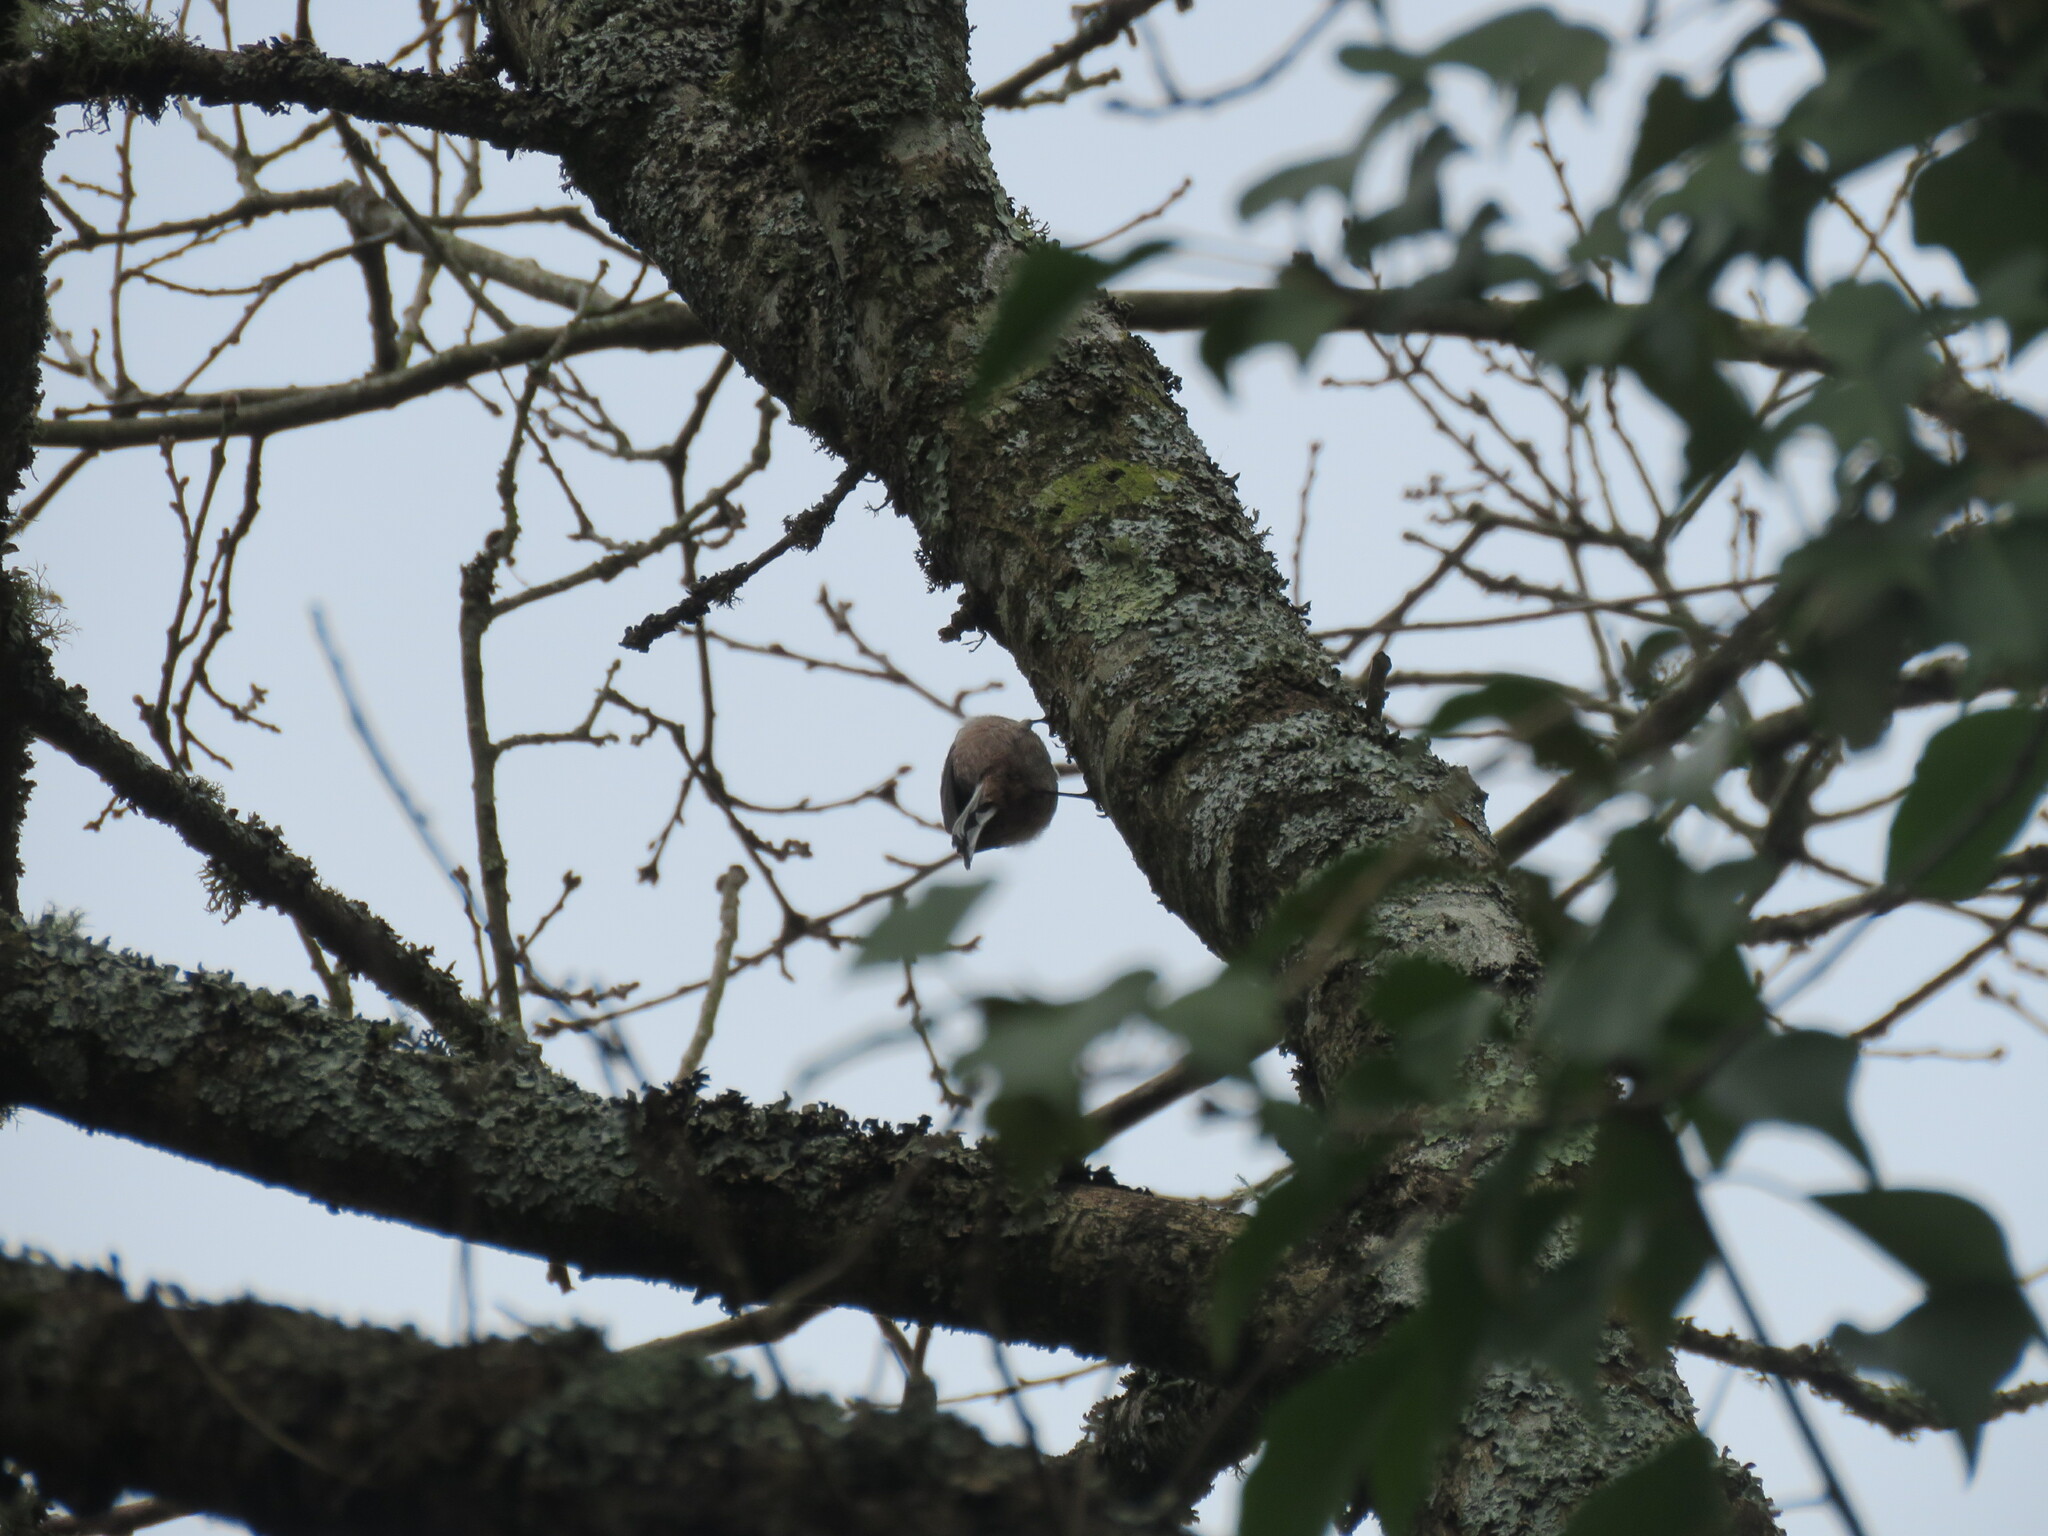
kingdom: Animalia
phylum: Chordata
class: Aves
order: Passeriformes
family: Aegithalidae
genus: Aegithalos
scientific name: Aegithalos caudatus
